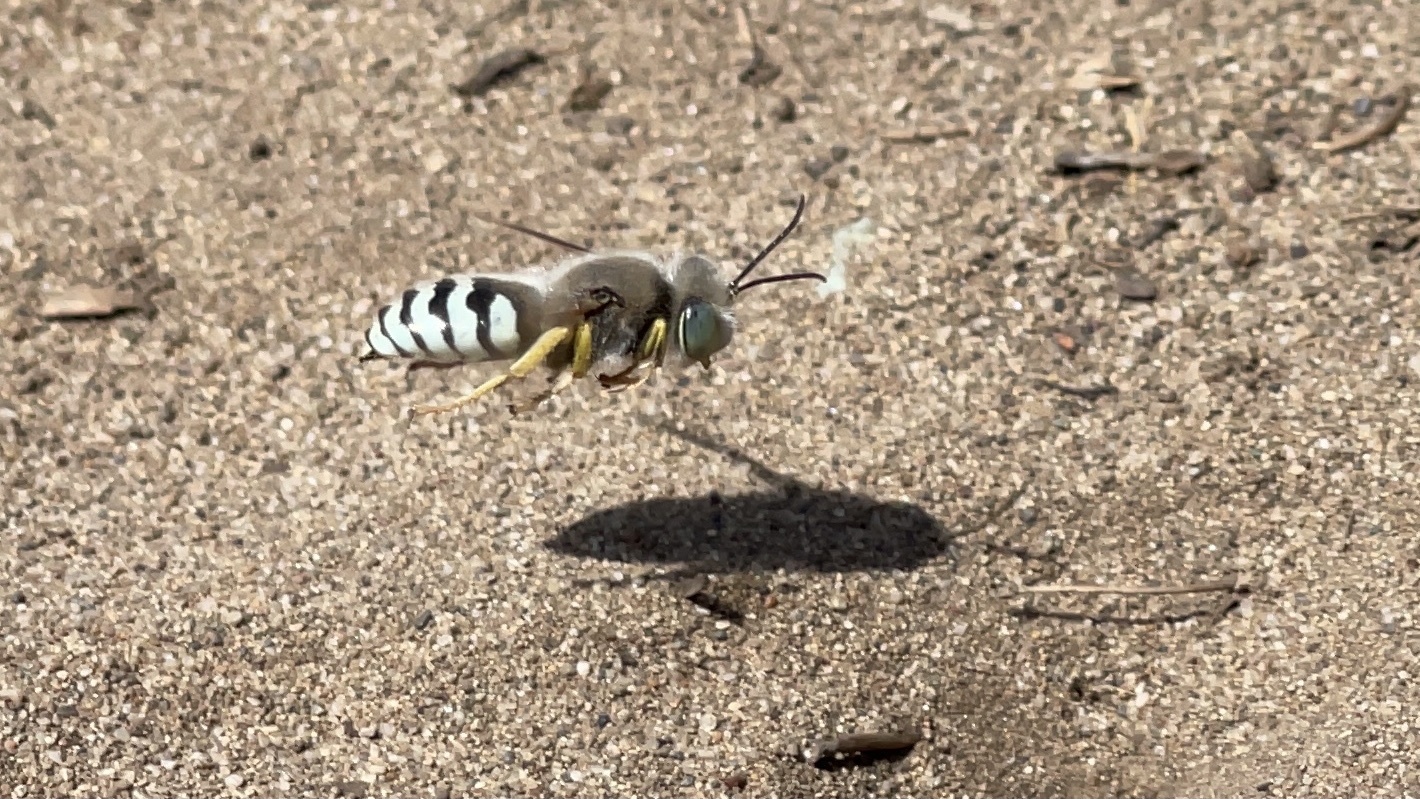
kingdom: Animalia
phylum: Arthropoda
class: Insecta
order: Hymenoptera
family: Crabronidae
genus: Bembix
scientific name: Bembix americana
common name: American sand wasp
